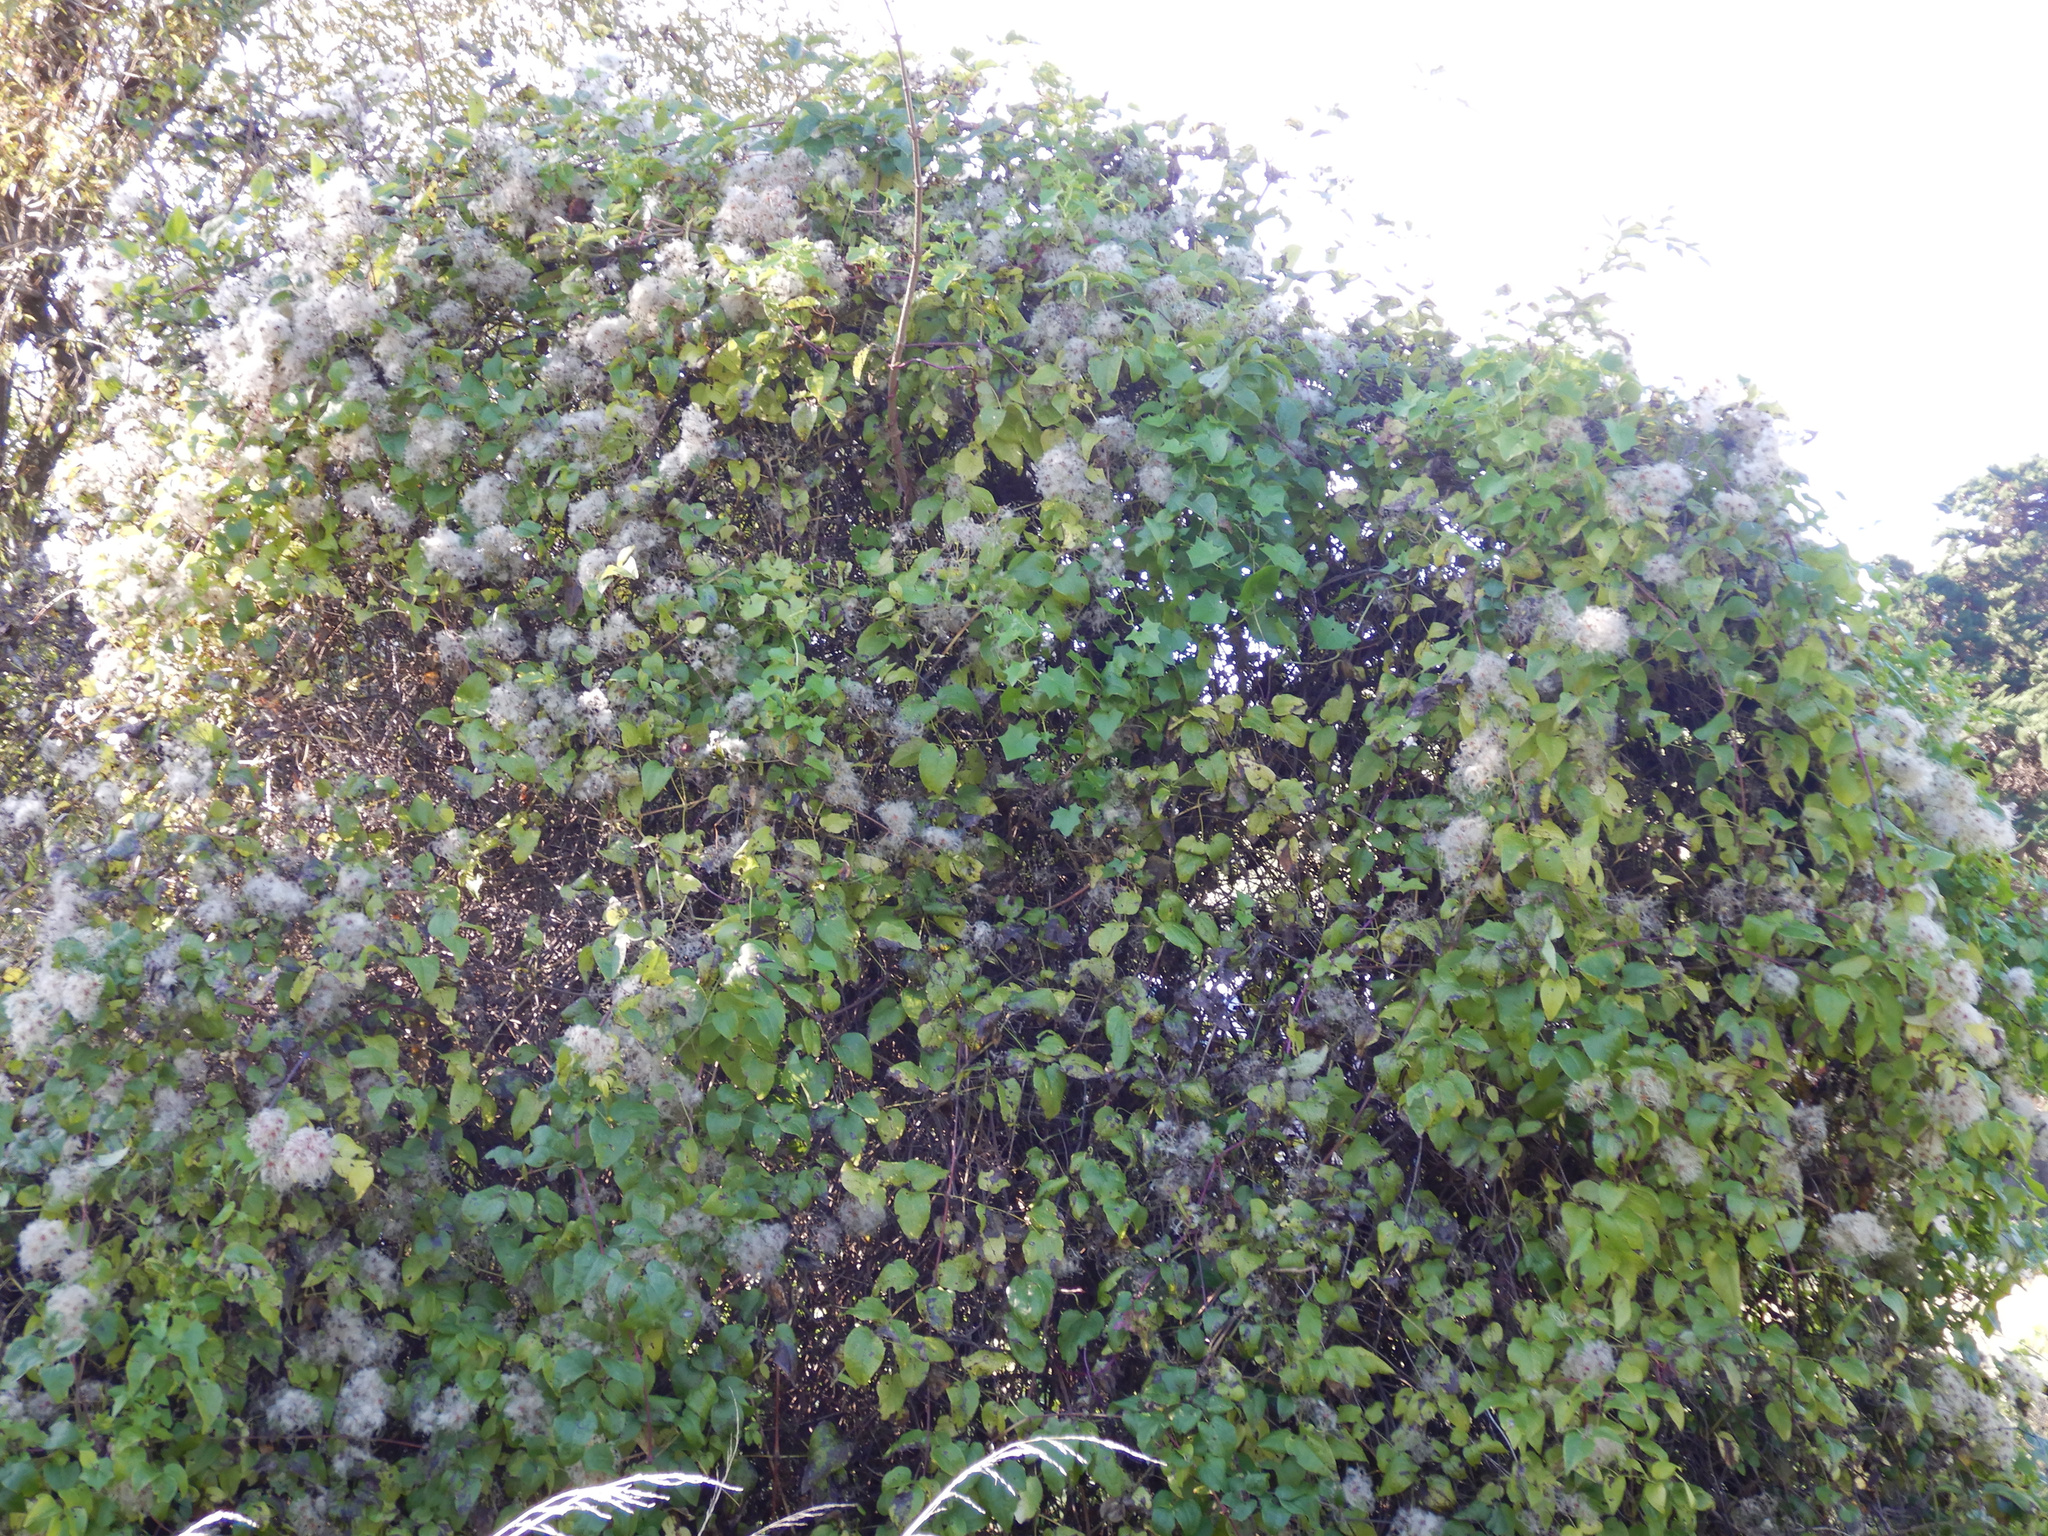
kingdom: Plantae
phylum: Tracheophyta
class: Magnoliopsida
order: Ranunculales
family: Ranunculaceae
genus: Clematis
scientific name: Clematis vitalba
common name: Evergreen clematis
